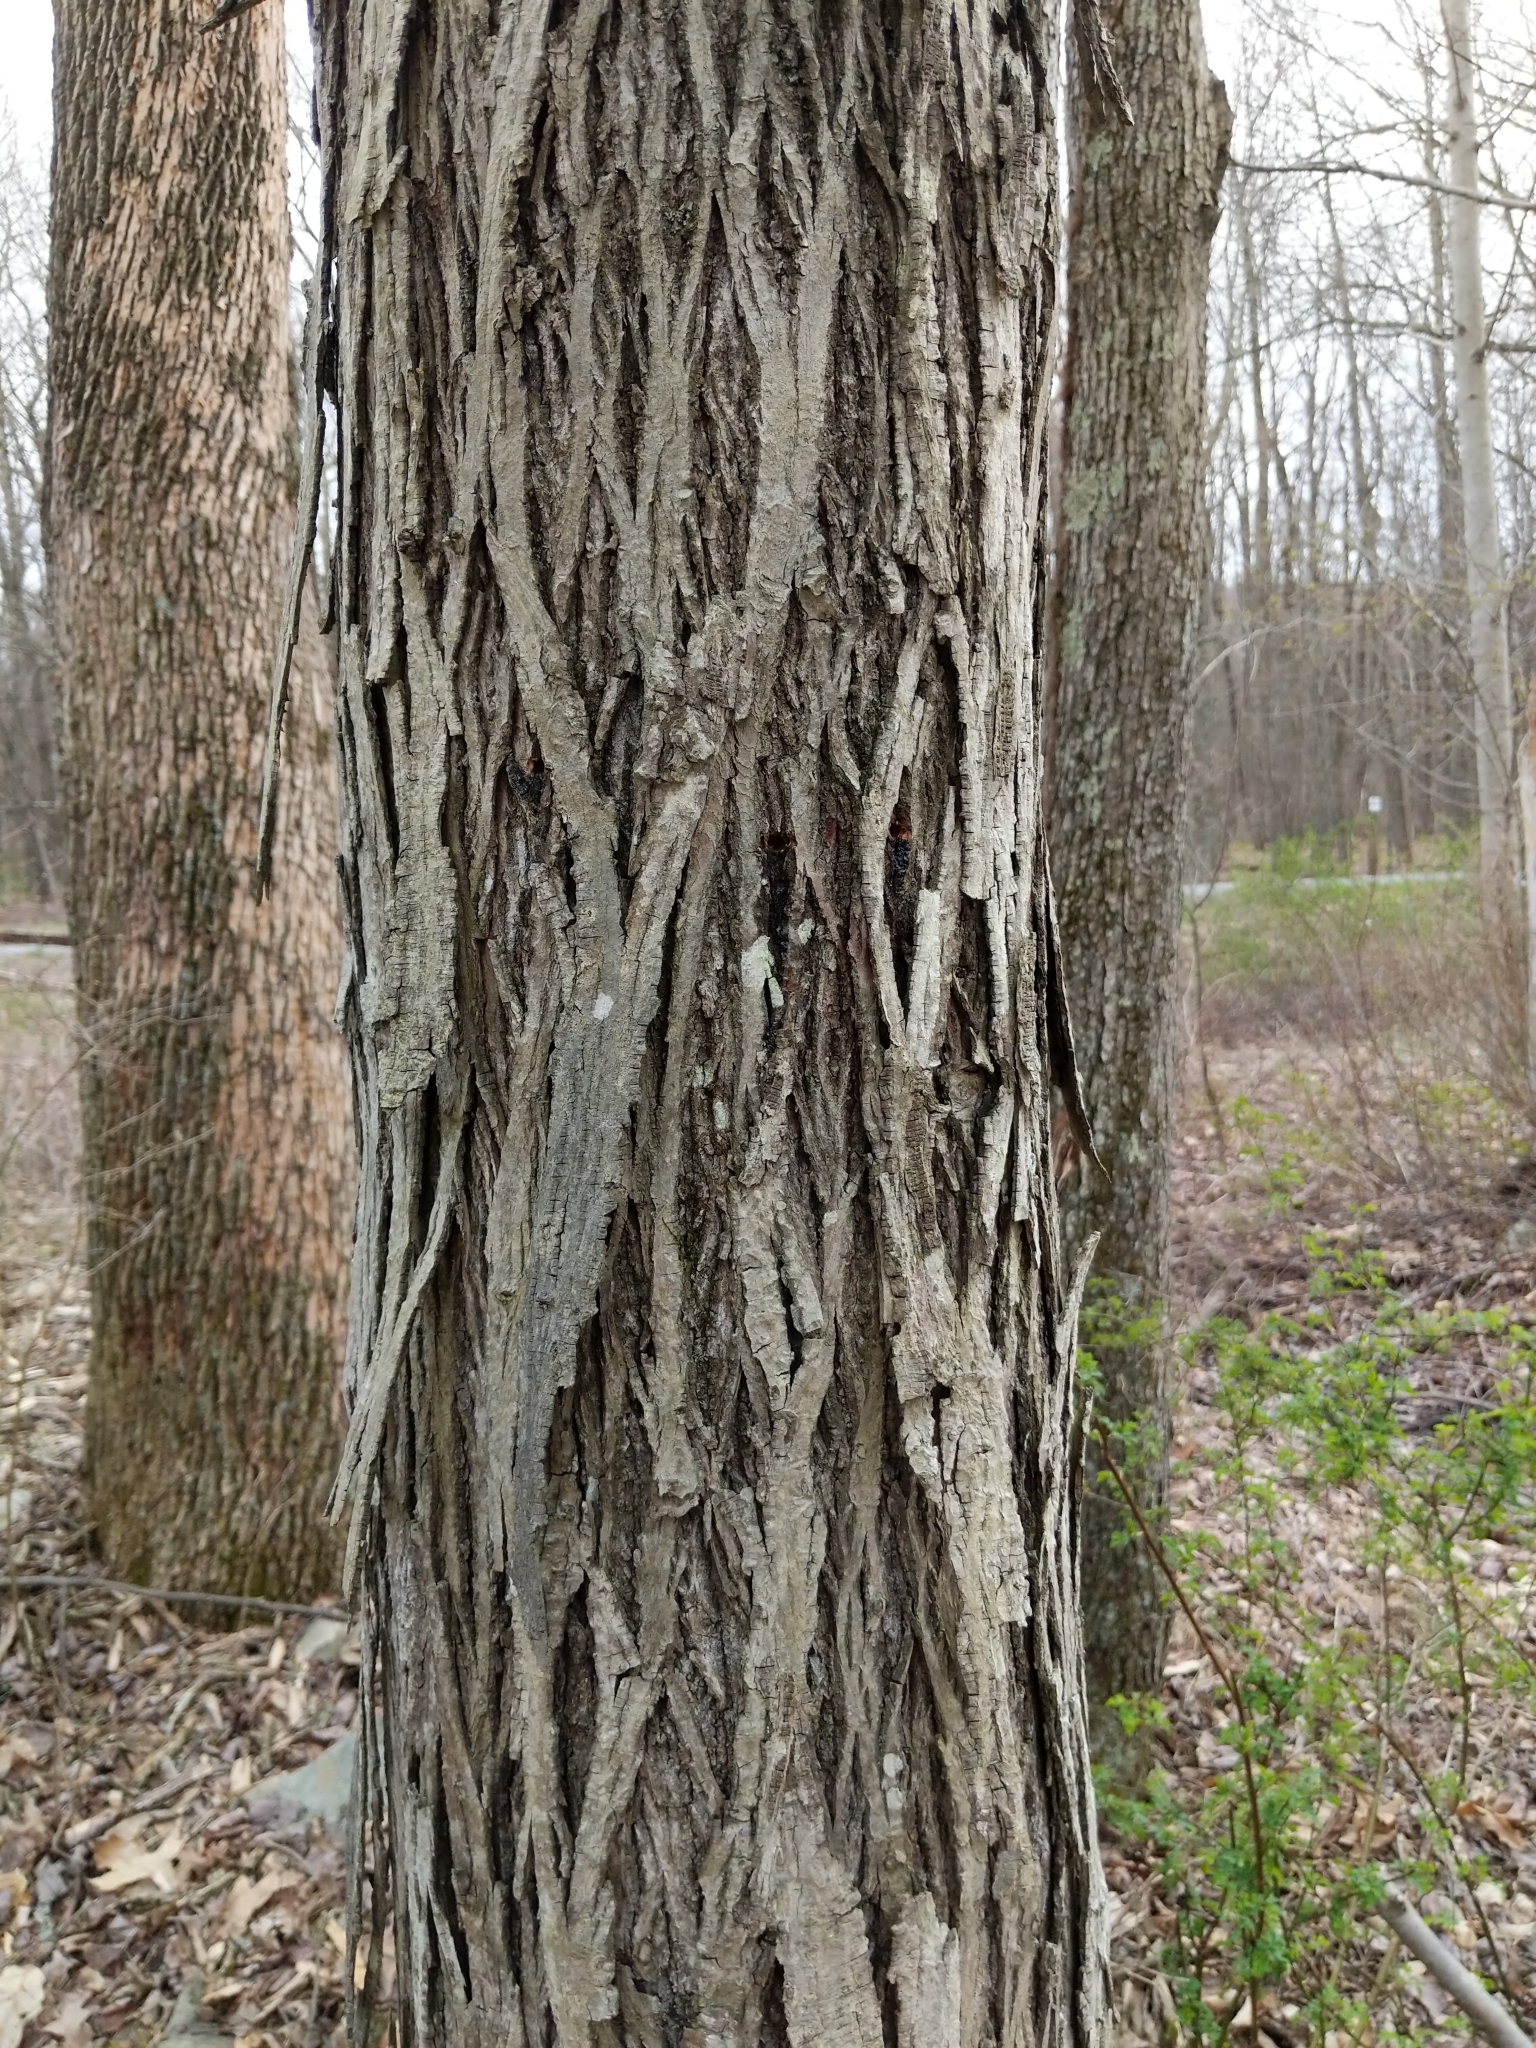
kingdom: Plantae
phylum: Tracheophyta
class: Magnoliopsida
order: Fagales
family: Juglandaceae
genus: Carya
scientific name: Carya ovata
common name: Shagbark hickory
